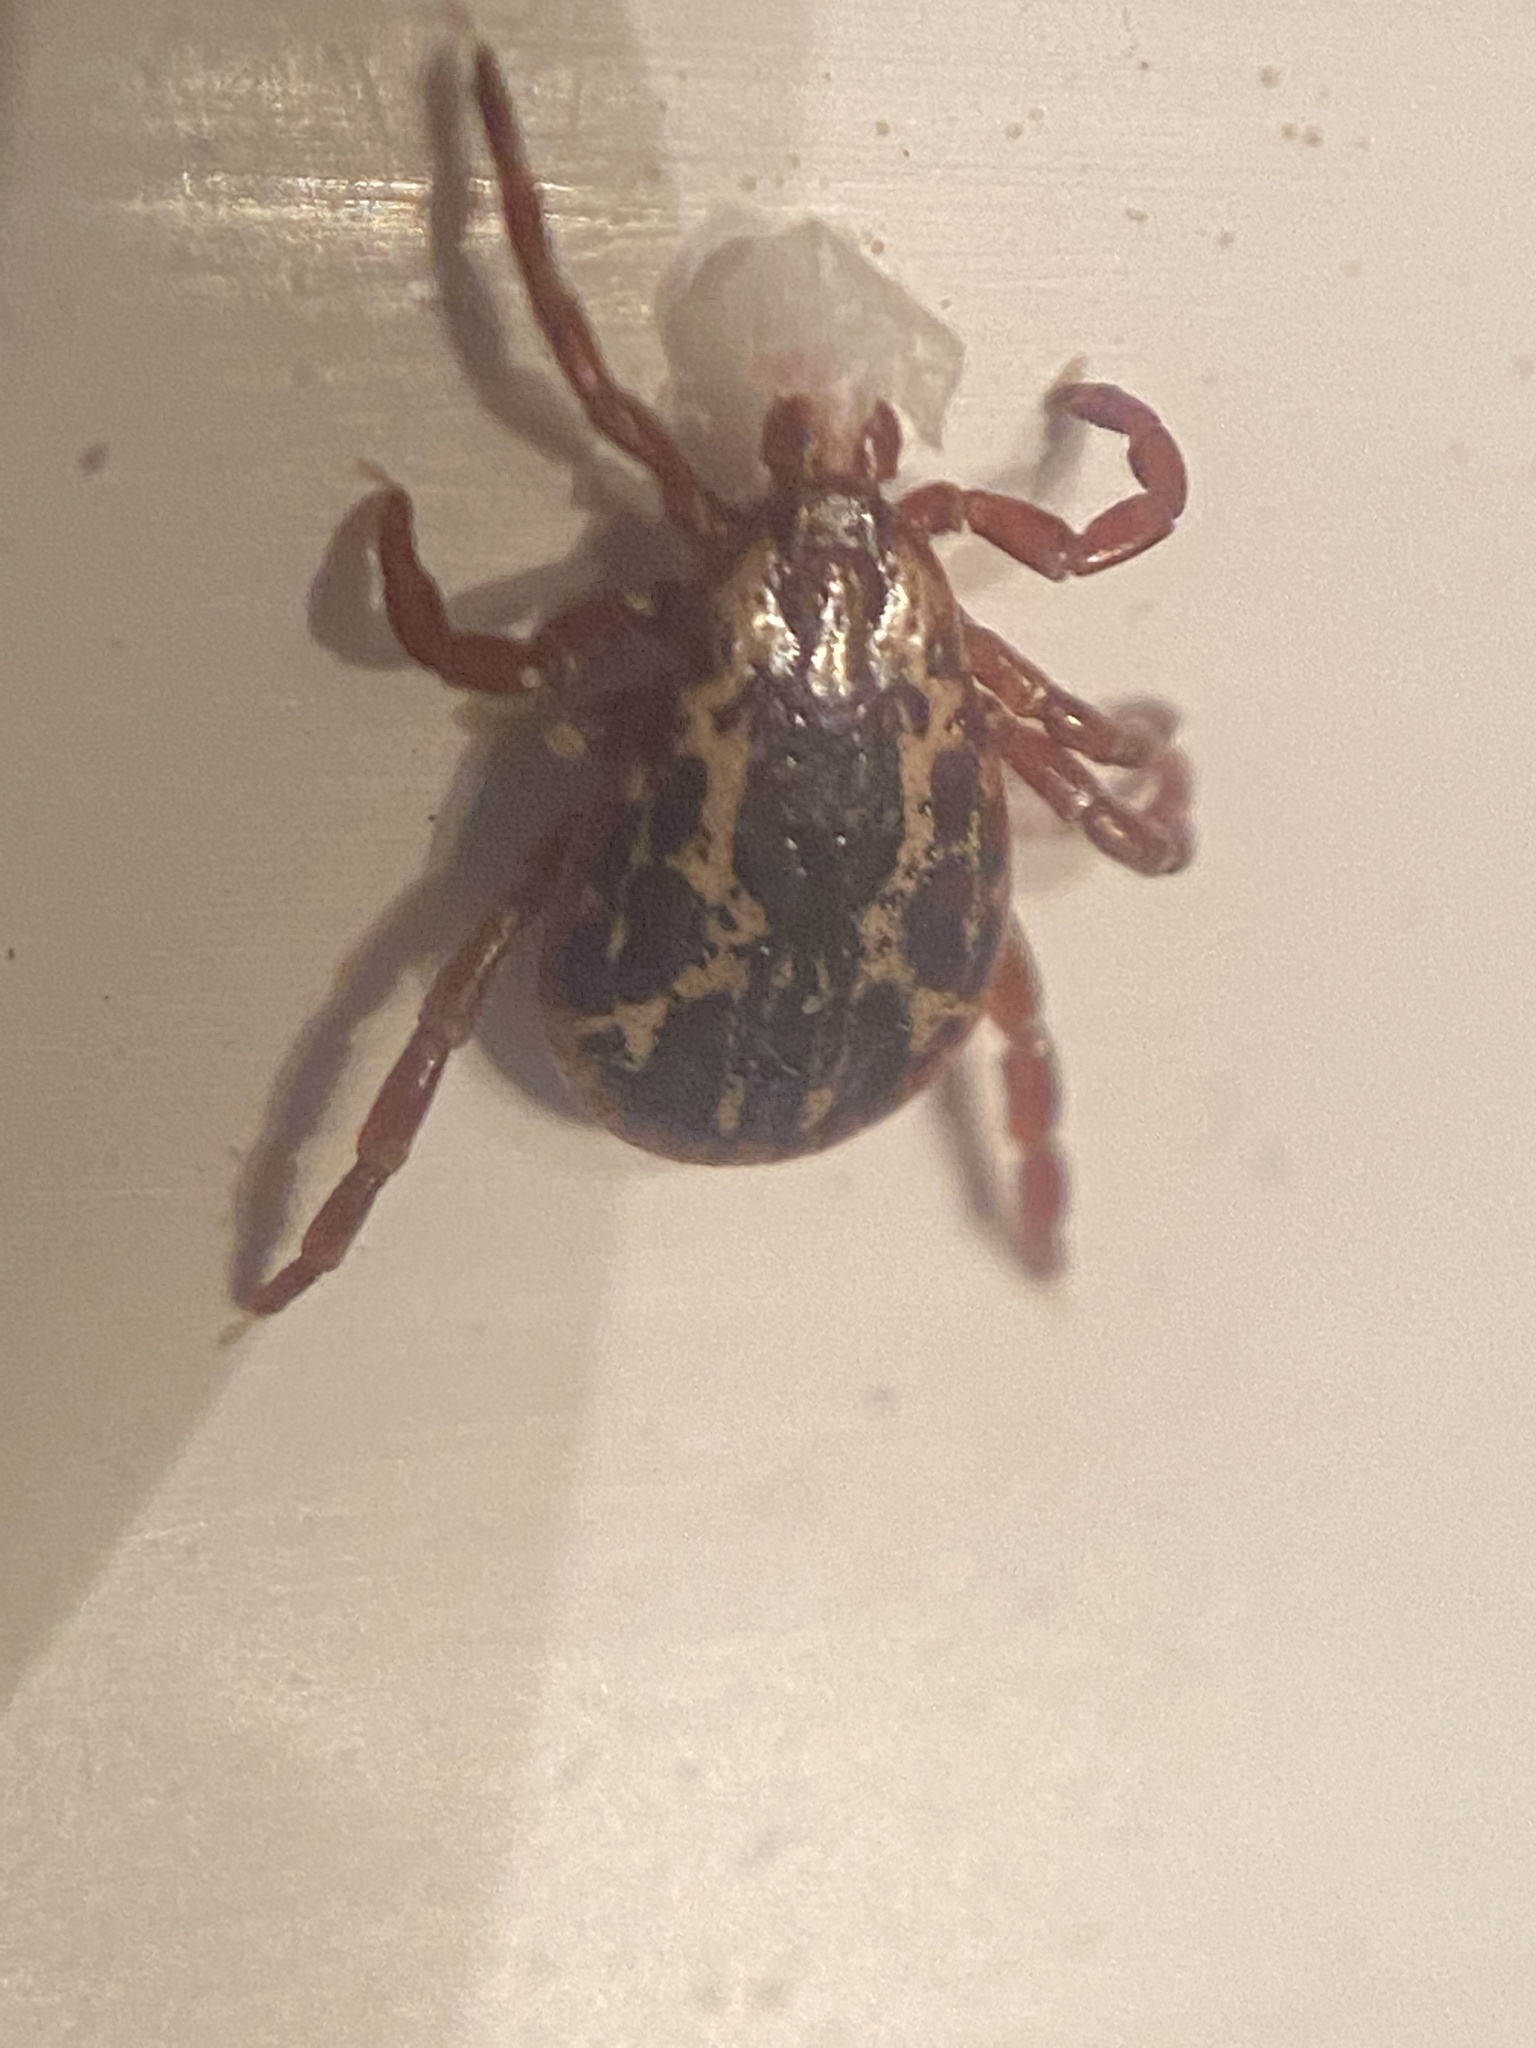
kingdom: Animalia
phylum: Arthropoda
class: Arachnida
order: Ixodida
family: Ixodidae
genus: Dermacentor
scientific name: Dermacentor variabilis
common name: American dog tick
